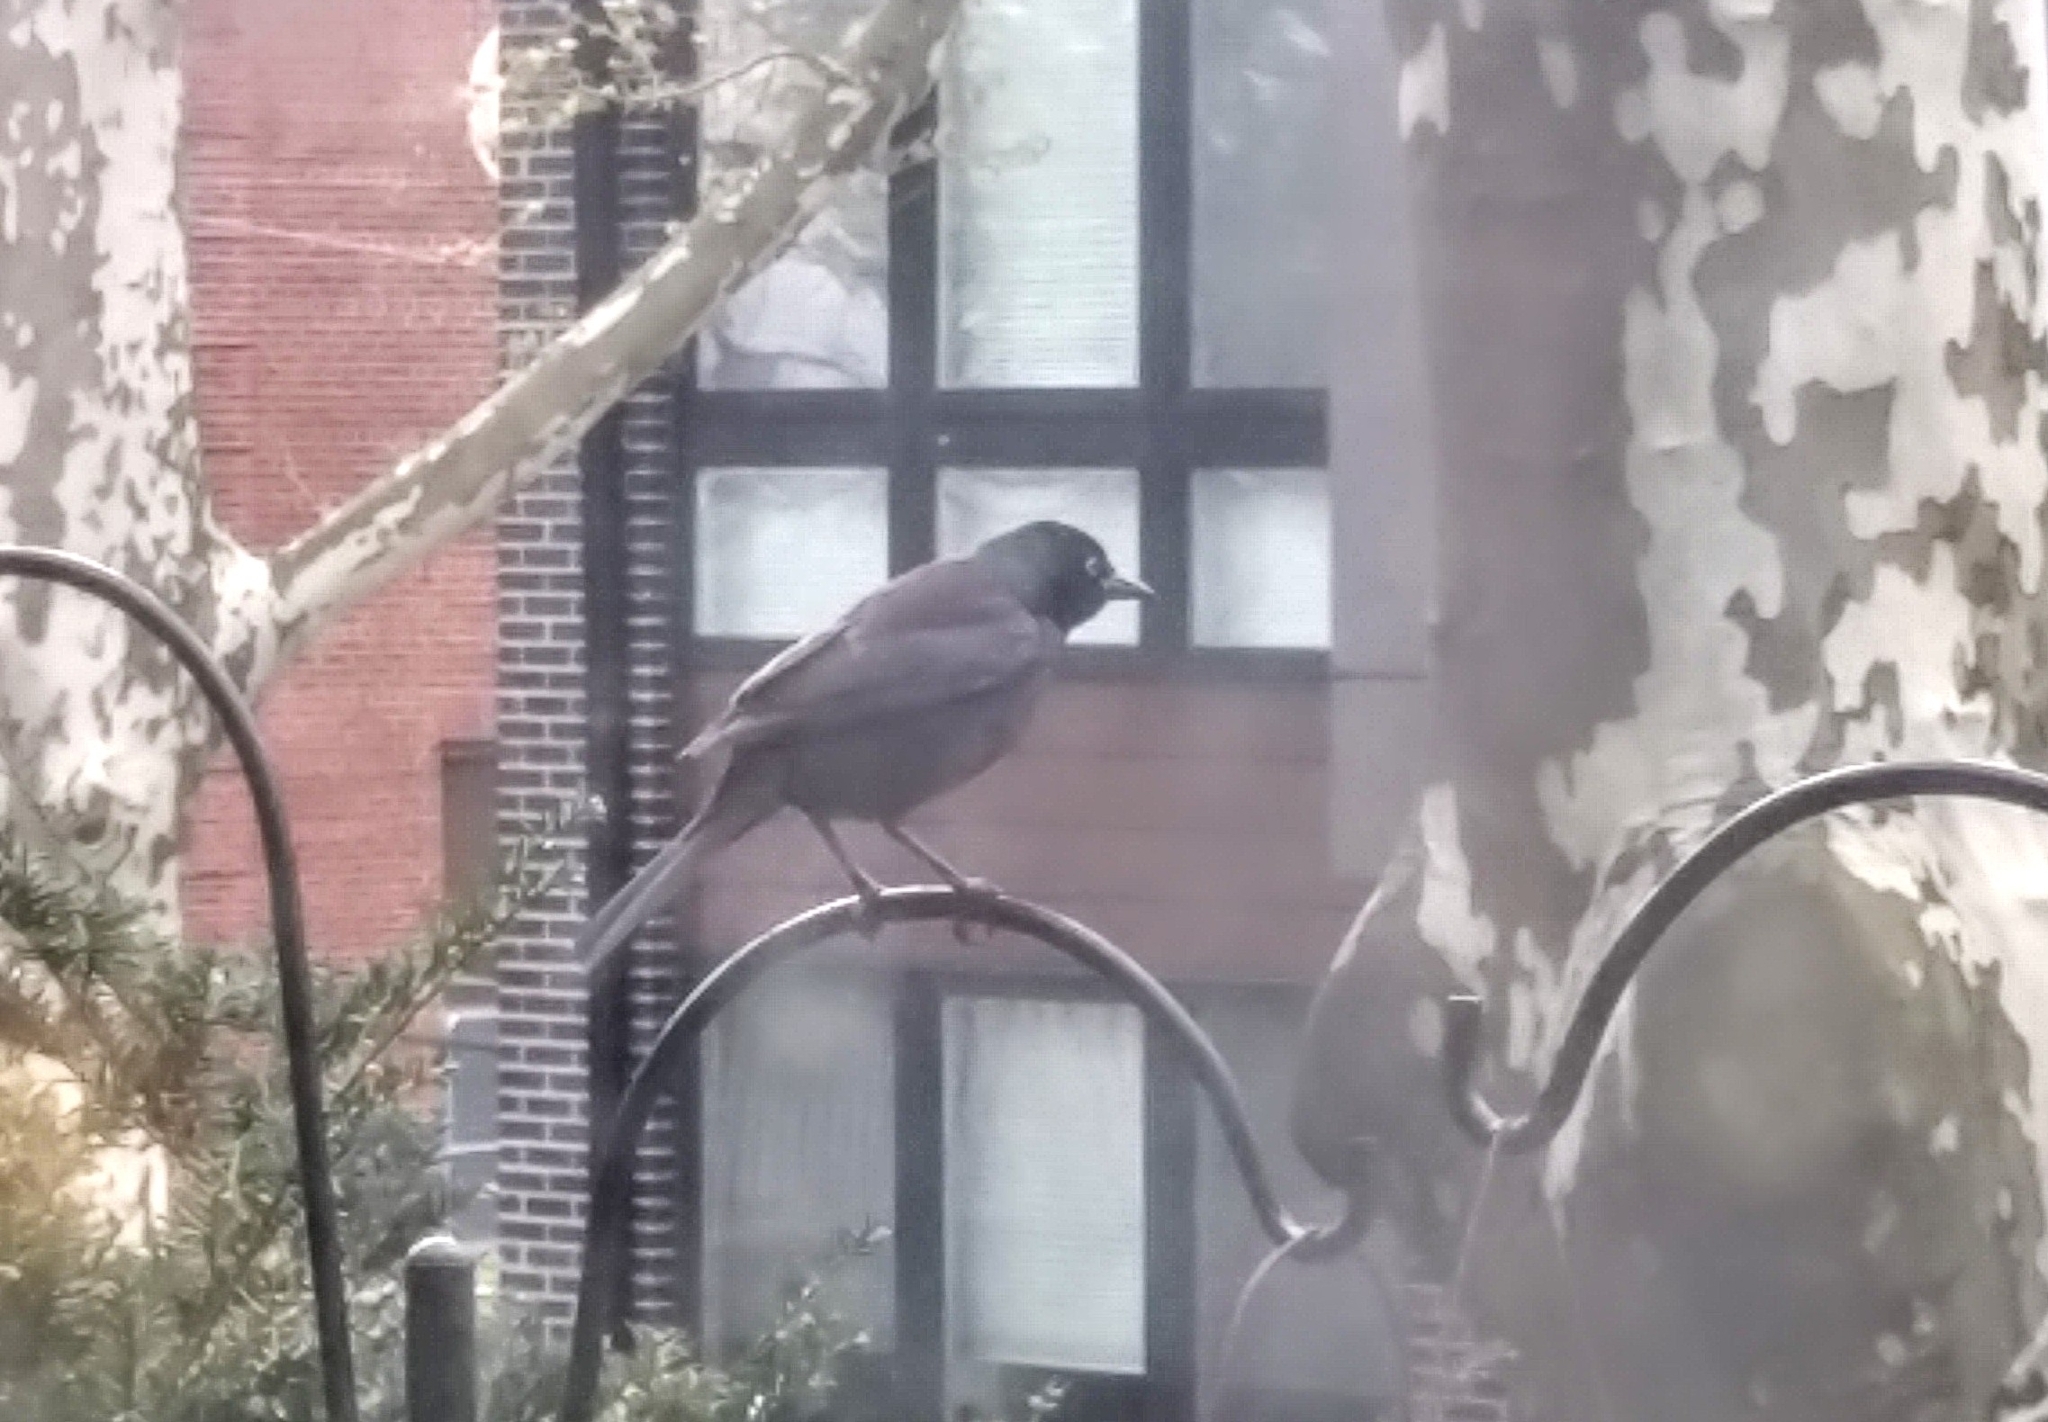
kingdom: Animalia
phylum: Chordata
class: Aves
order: Passeriformes
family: Icteridae
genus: Quiscalus
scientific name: Quiscalus quiscula
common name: Common grackle
